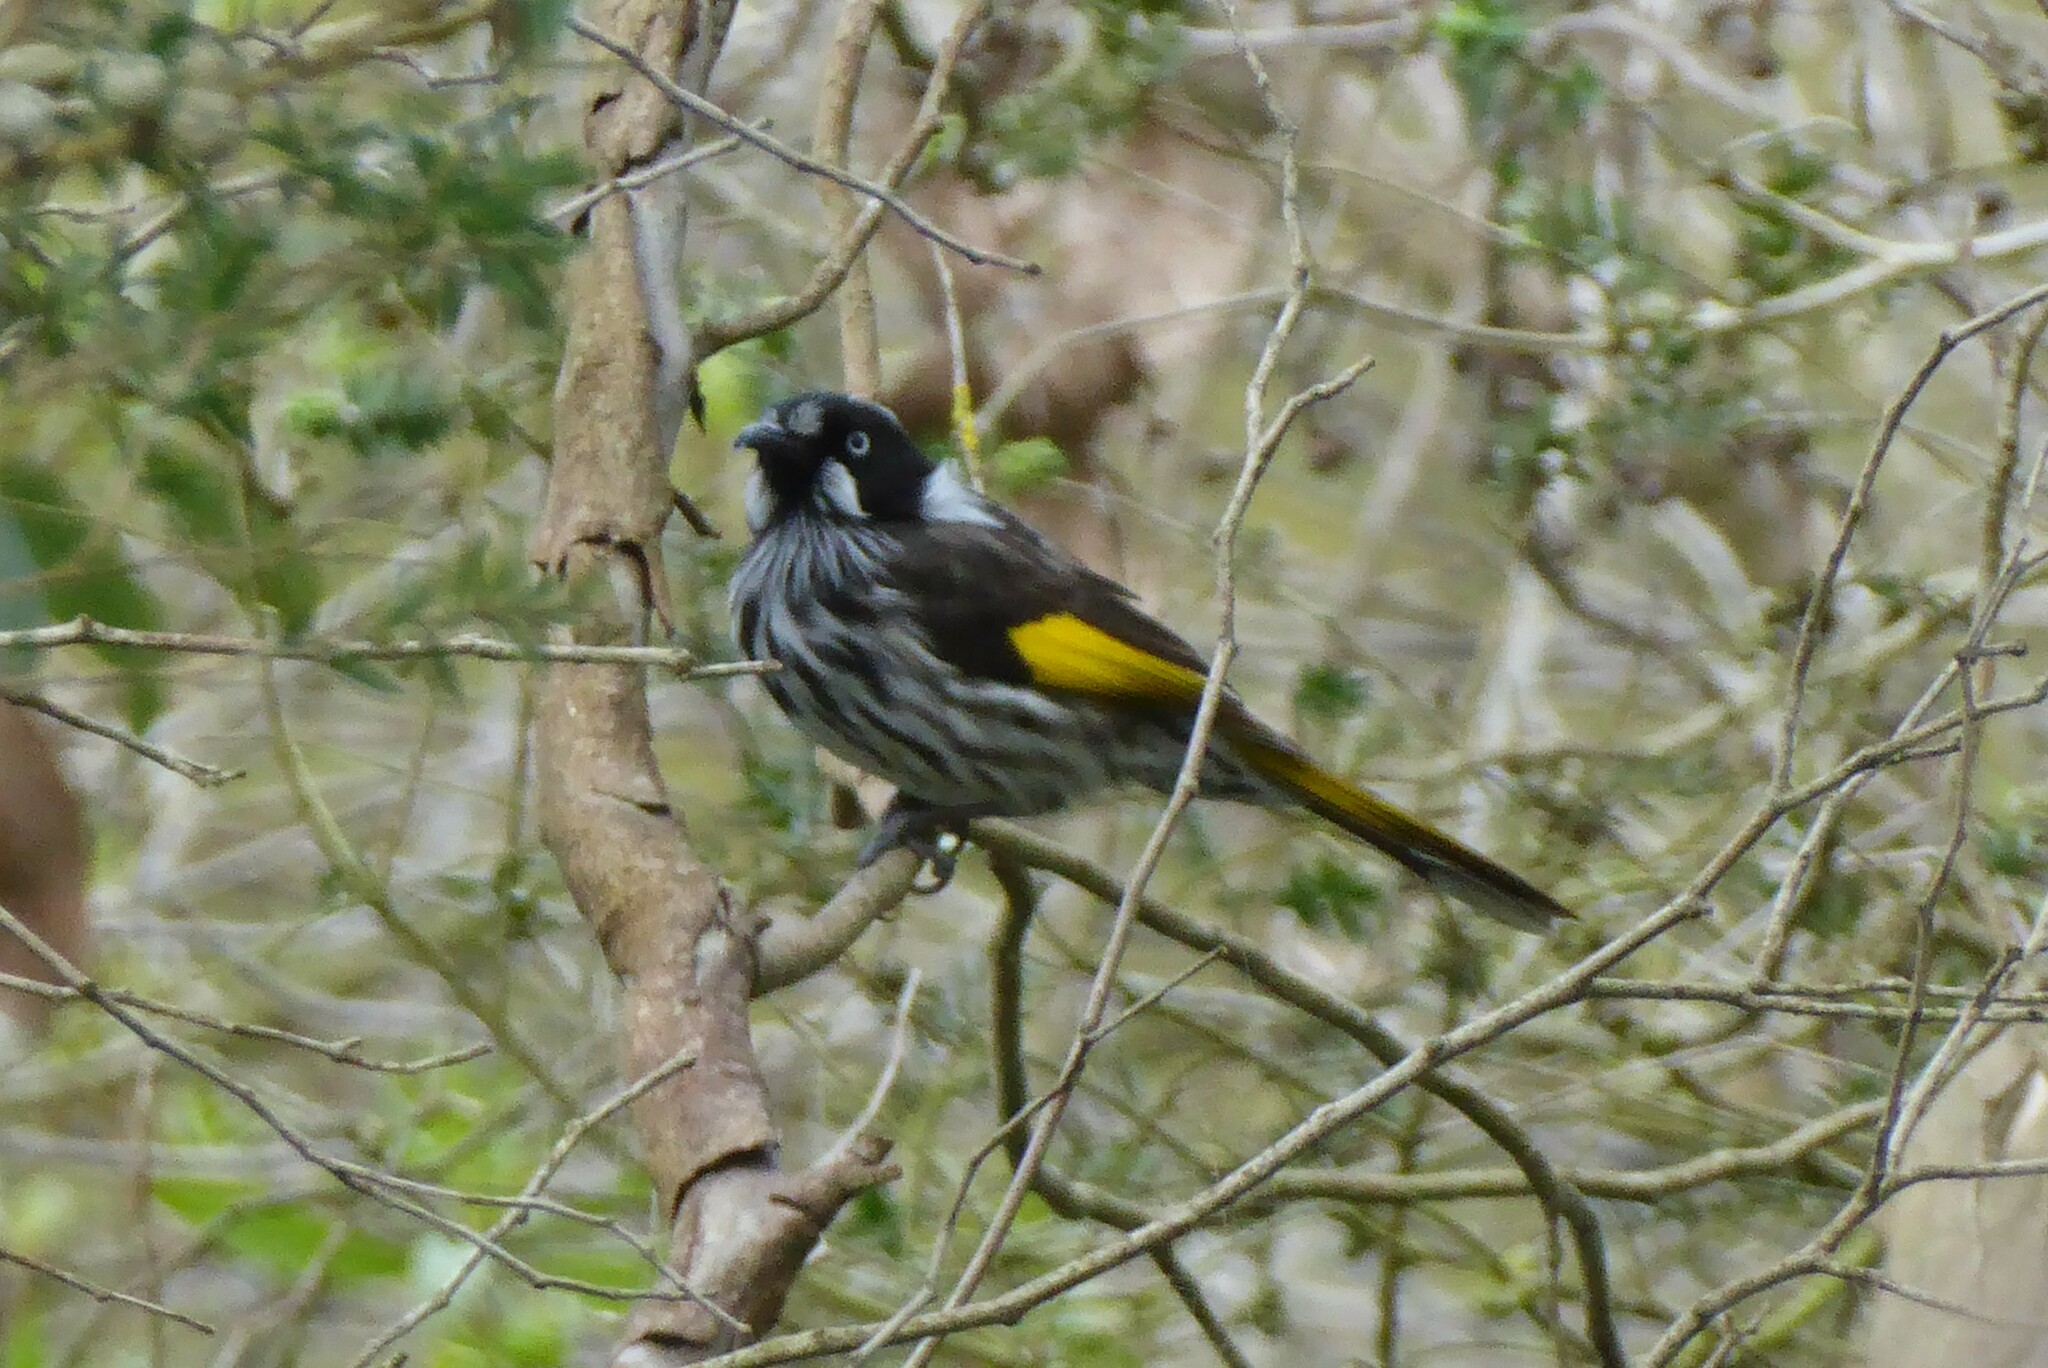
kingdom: Animalia
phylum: Chordata
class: Aves
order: Passeriformes
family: Meliphagidae
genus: Phylidonyris
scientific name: Phylidonyris novaehollandiae
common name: New holland honeyeater
